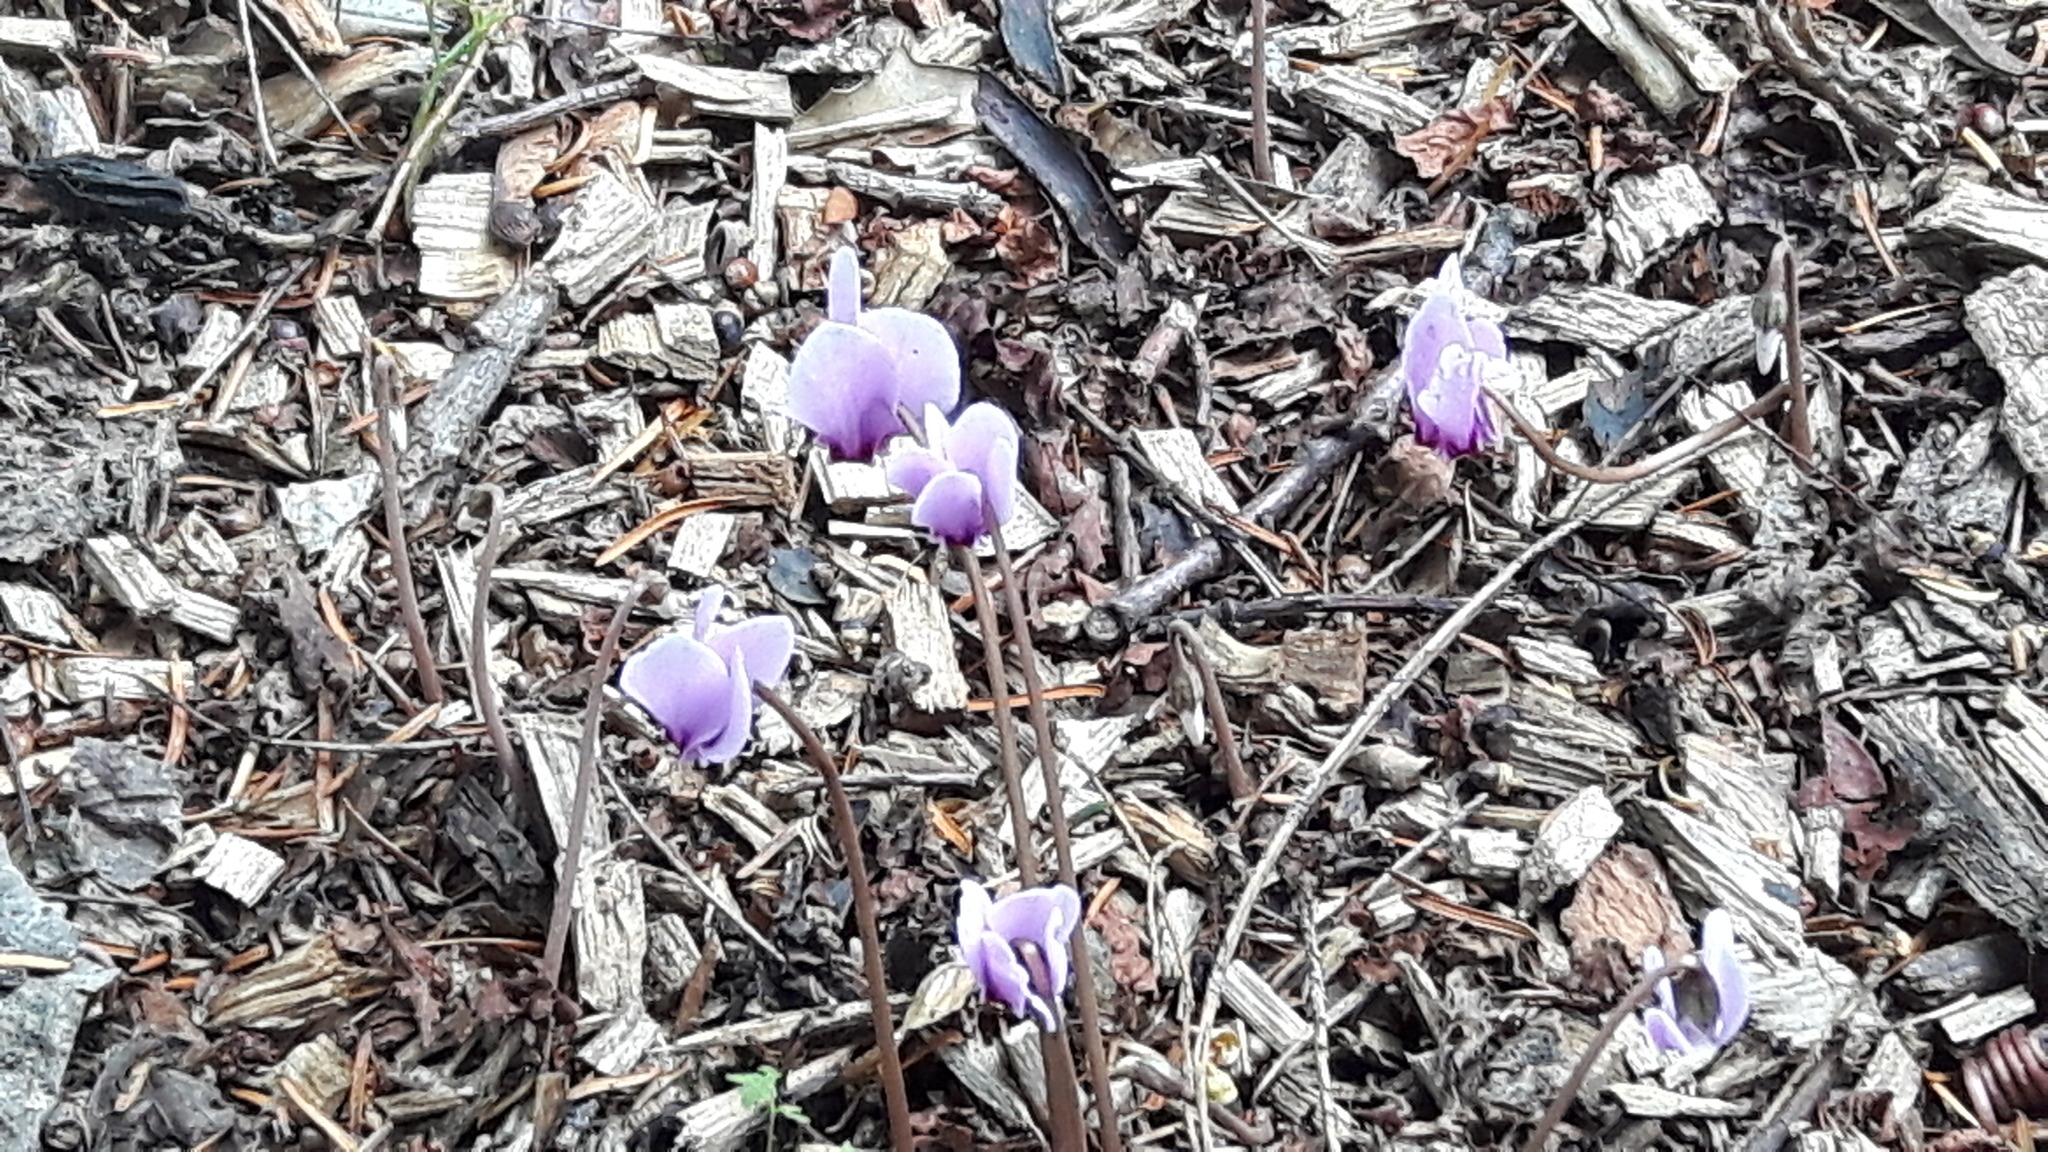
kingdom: Plantae
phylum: Tracheophyta
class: Magnoliopsida
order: Ericales
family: Primulaceae
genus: Cyclamen
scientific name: Cyclamen hederifolium
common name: Sowbread
